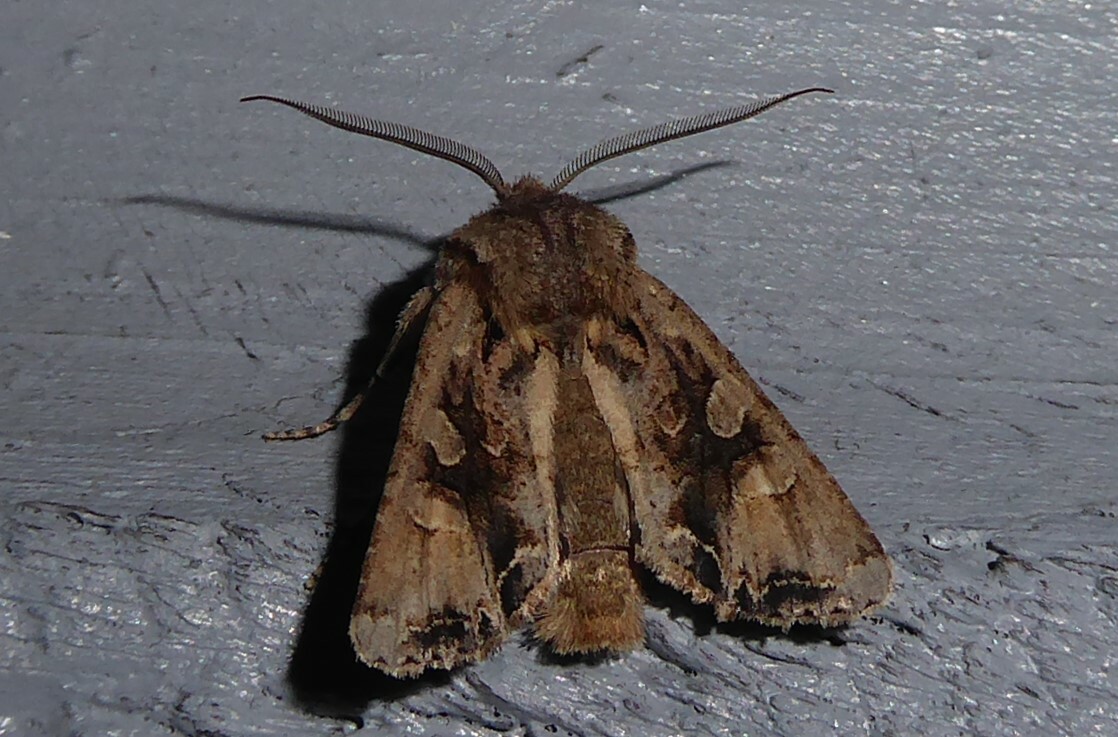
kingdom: Animalia
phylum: Arthropoda
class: Insecta
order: Lepidoptera
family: Noctuidae
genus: Ichneutica
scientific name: Ichneutica
